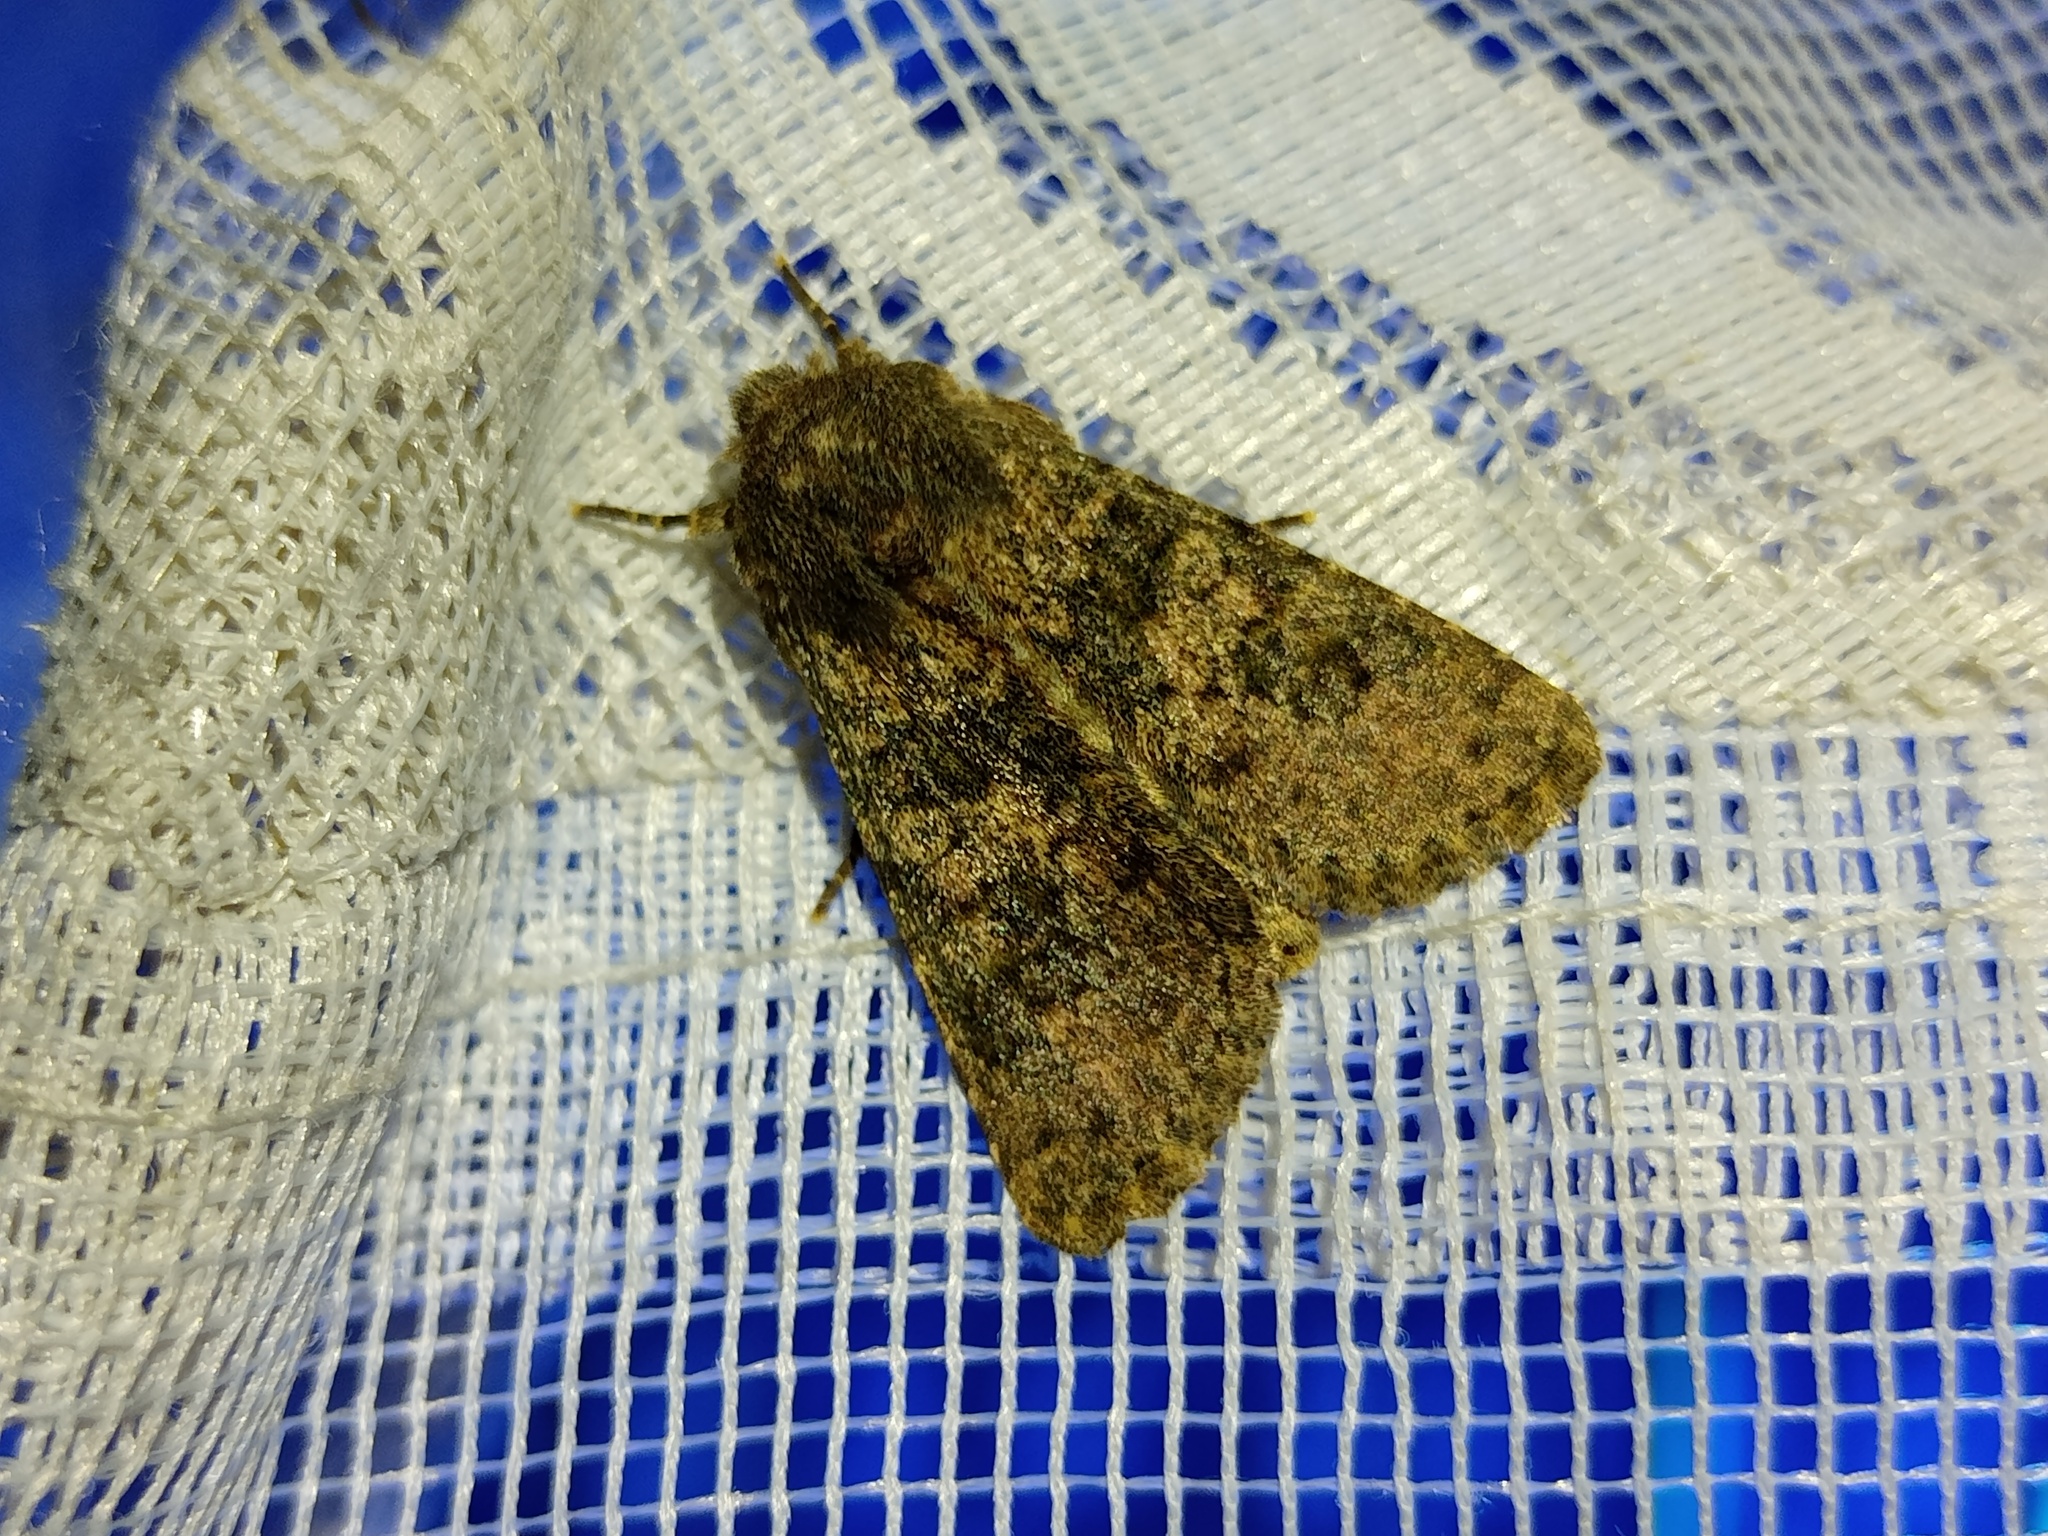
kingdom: Animalia
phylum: Arthropoda
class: Insecta
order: Lepidoptera
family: Noctuidae
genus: Polymixis
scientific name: Polymixis bacheri
